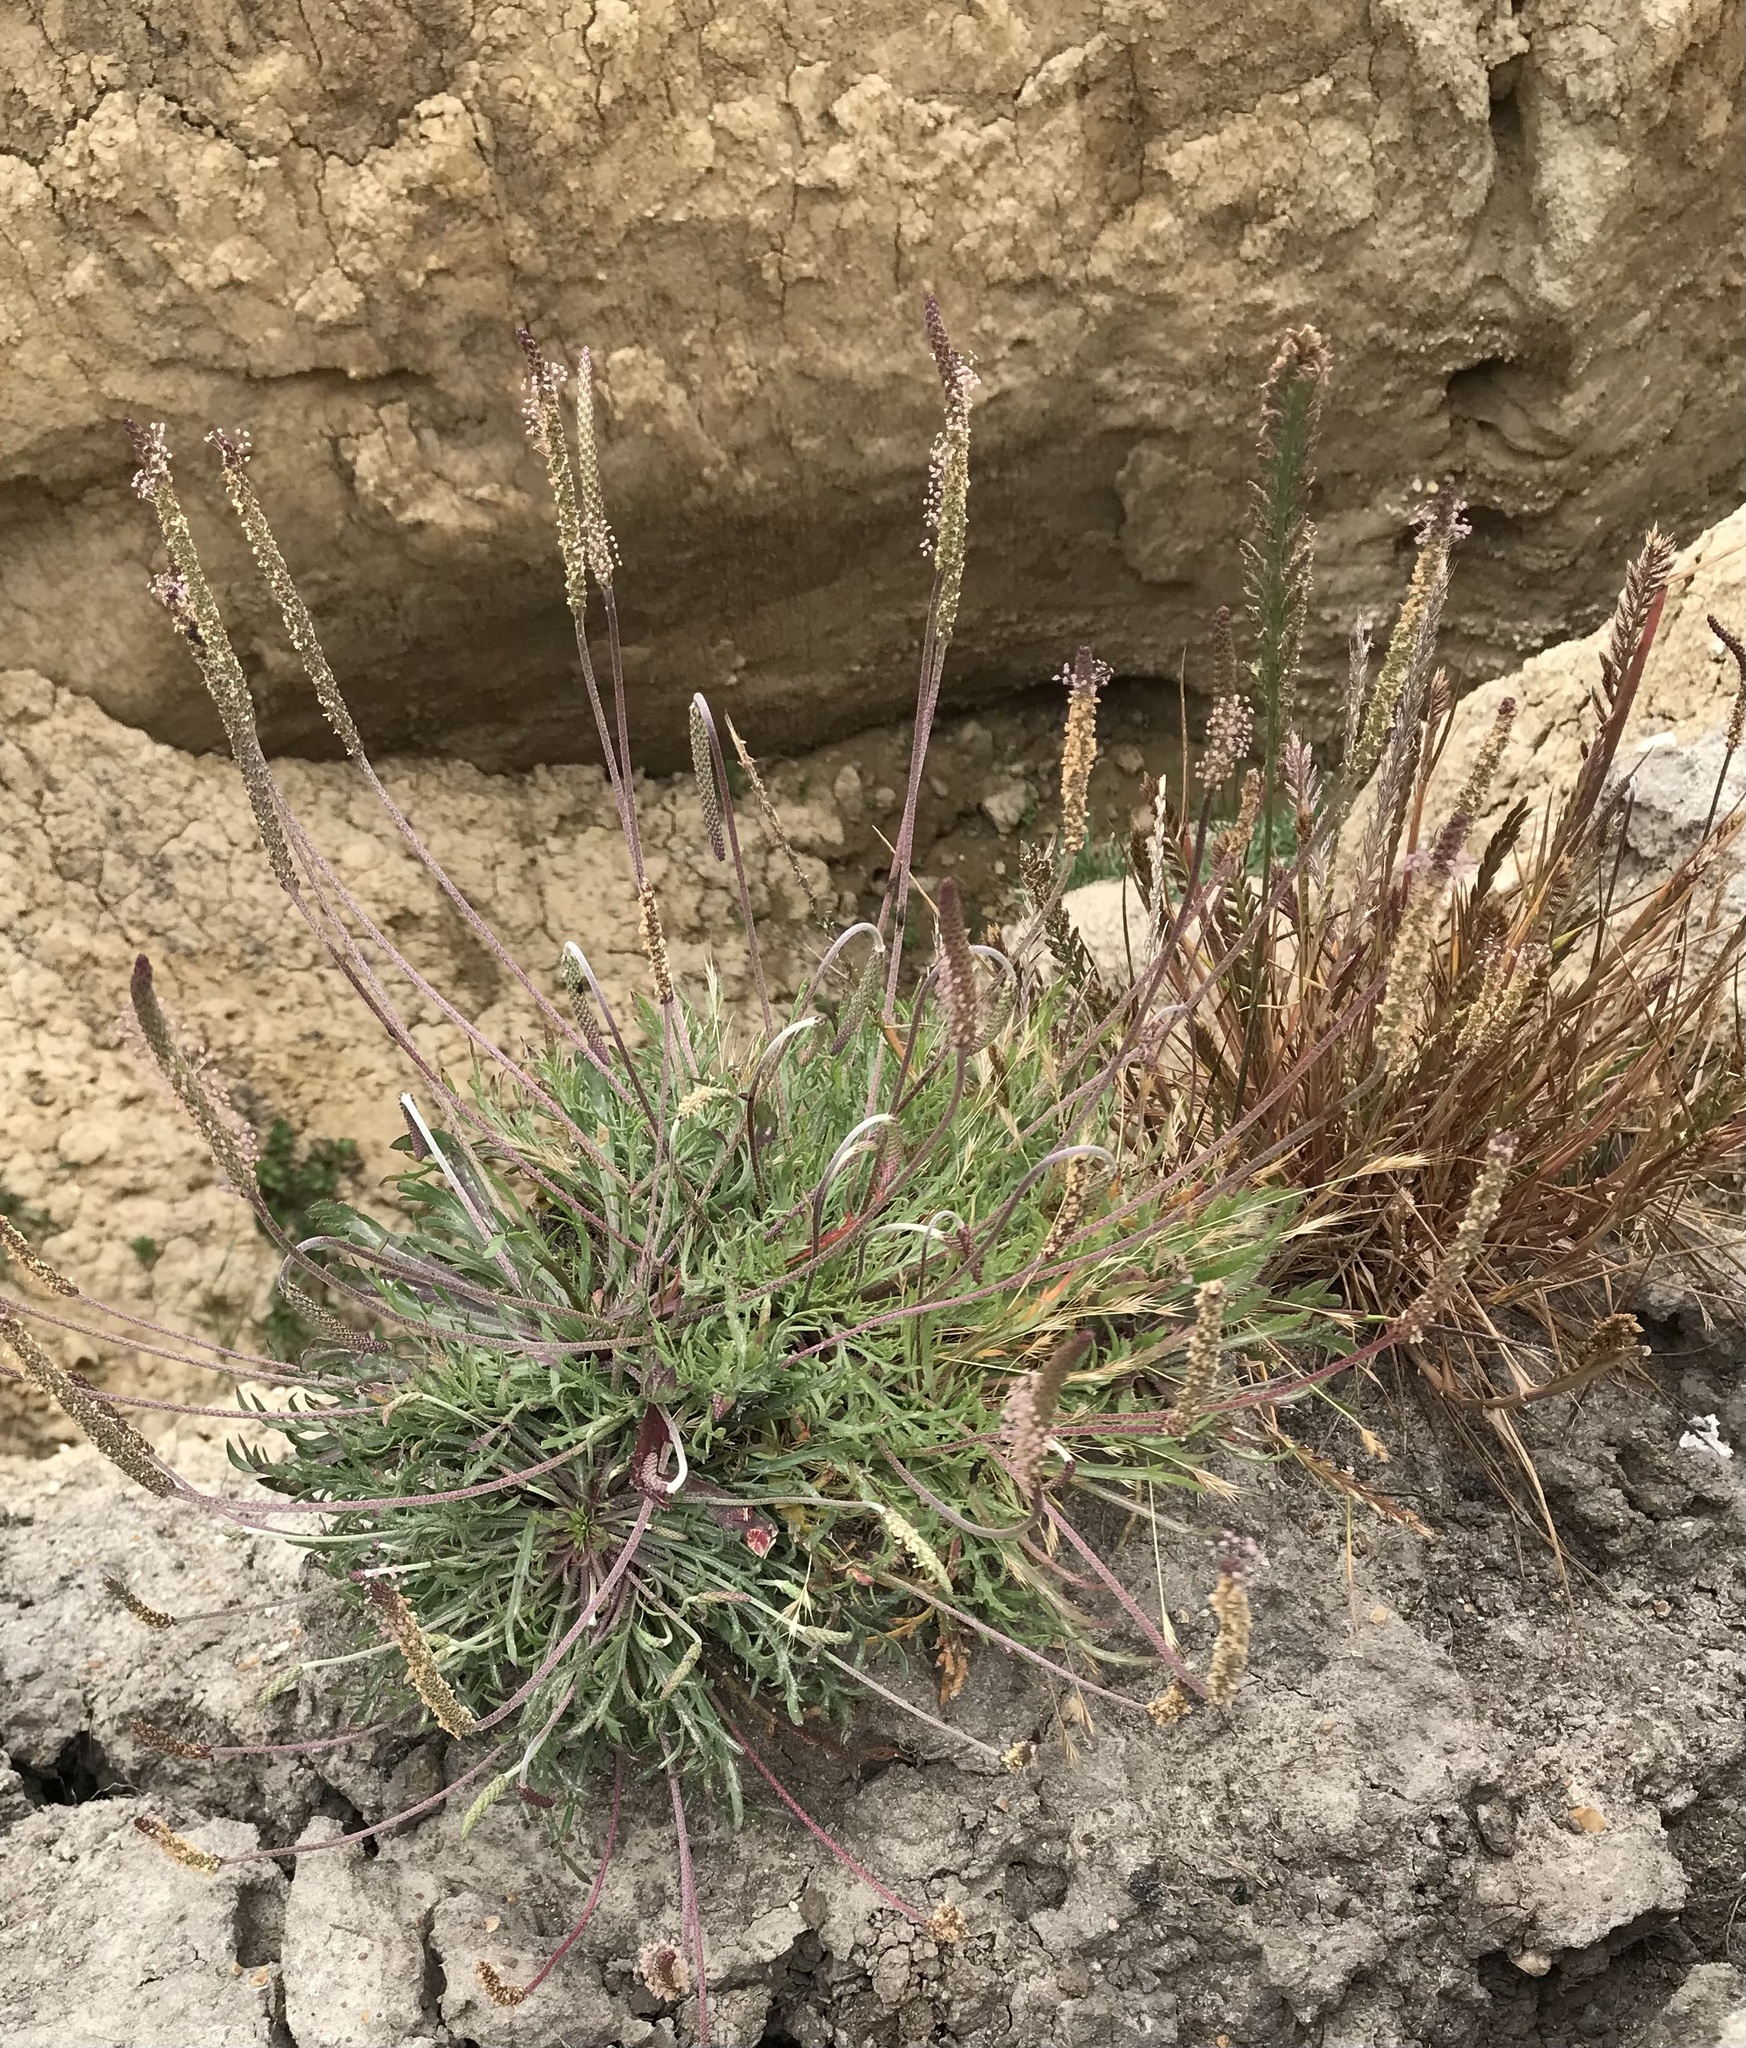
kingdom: Plantae
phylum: Tracheophyta
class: Magnoliopsida
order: Lamiales
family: Plantaginaceae
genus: Plantago
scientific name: Plantago coronopus
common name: Buck's-horn plantain
